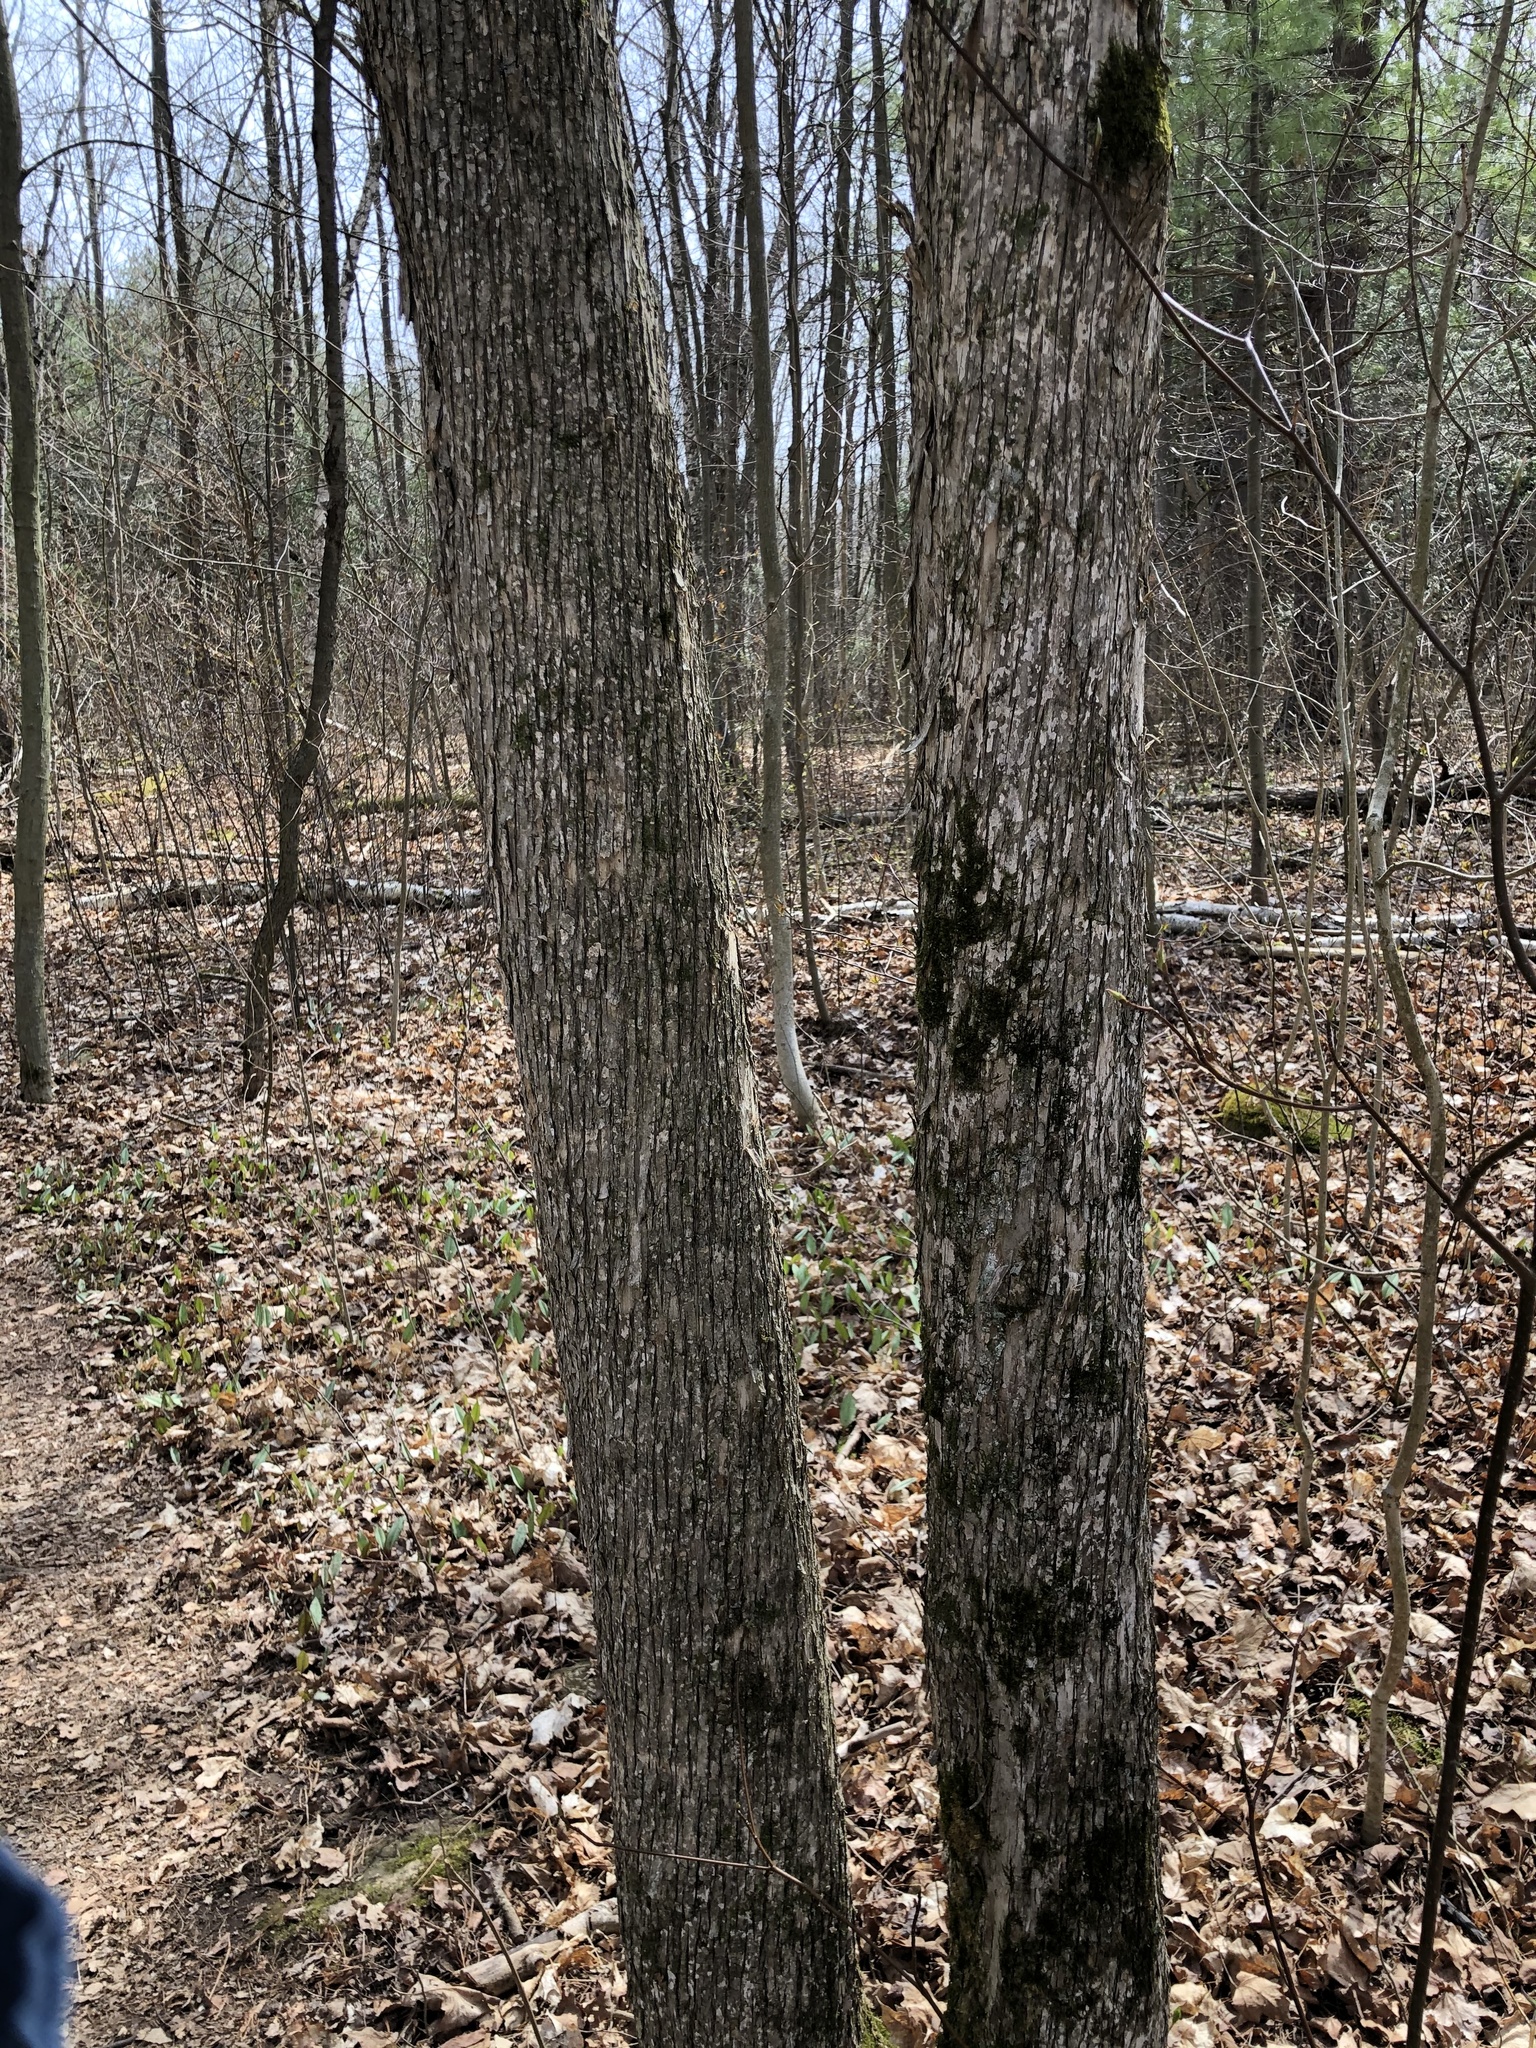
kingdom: Plantae
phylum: Tracheophyta
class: Magnoliopsida
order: Fagales
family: Betulaceae
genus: Ostrya
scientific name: Ostrya virginiana
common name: Ironwood
